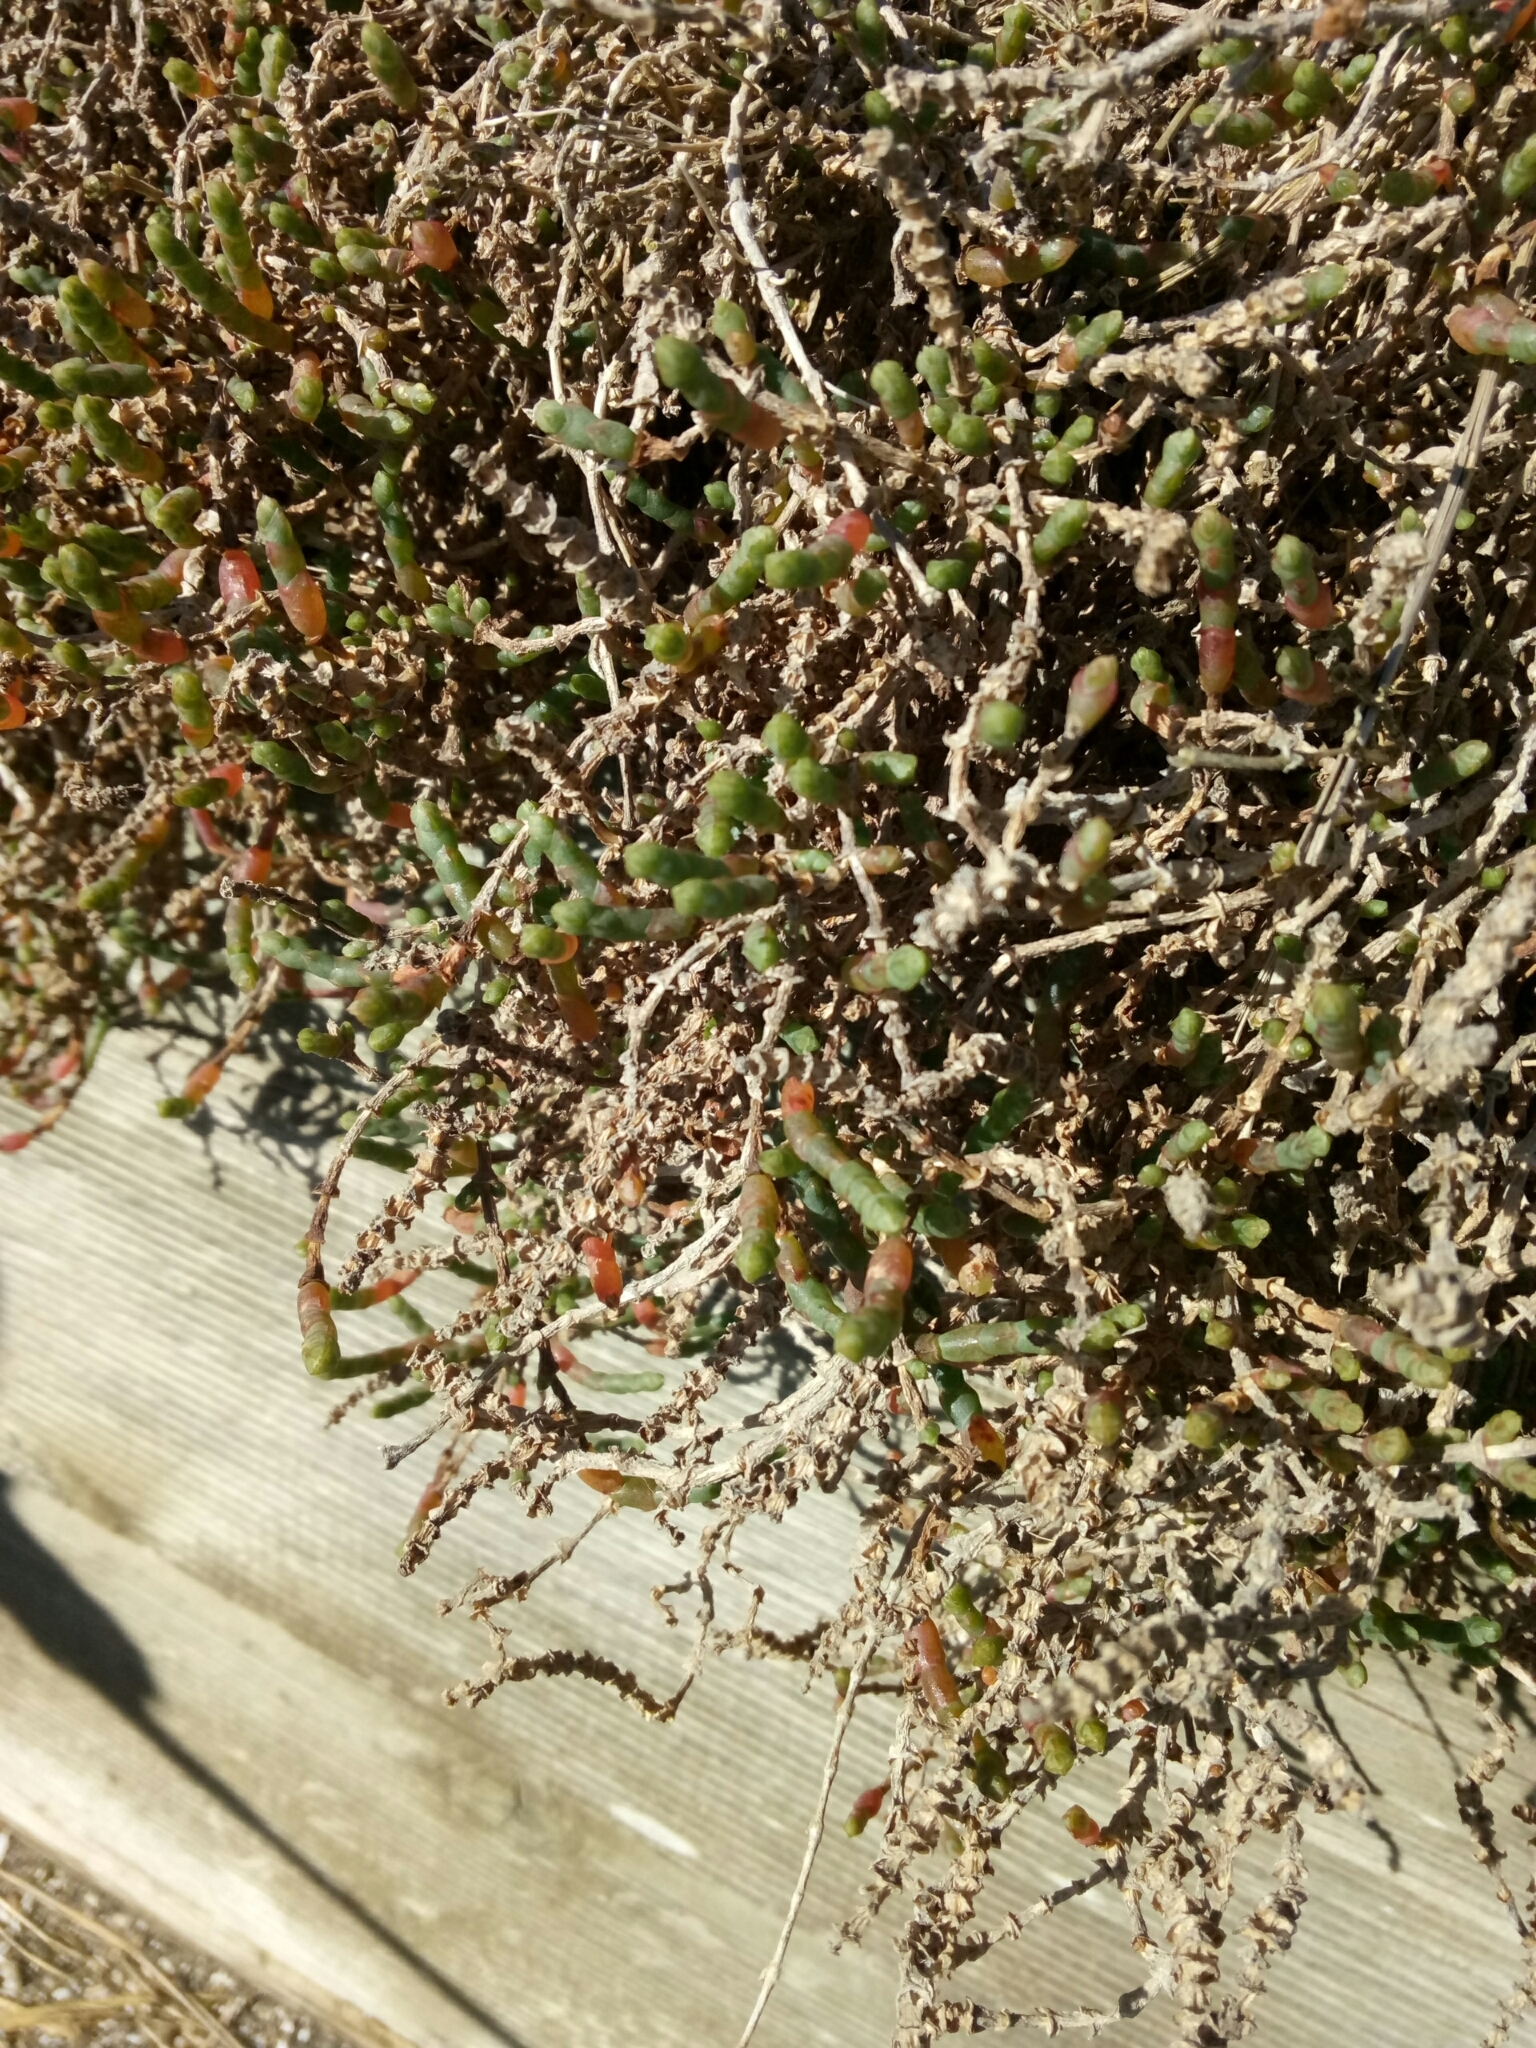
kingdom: Plantae
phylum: Tracheophyta
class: Magnoliopsida
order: Caryophyllales
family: Amaranthaceae
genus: Salicornia
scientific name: Salicornia quinqueflora
